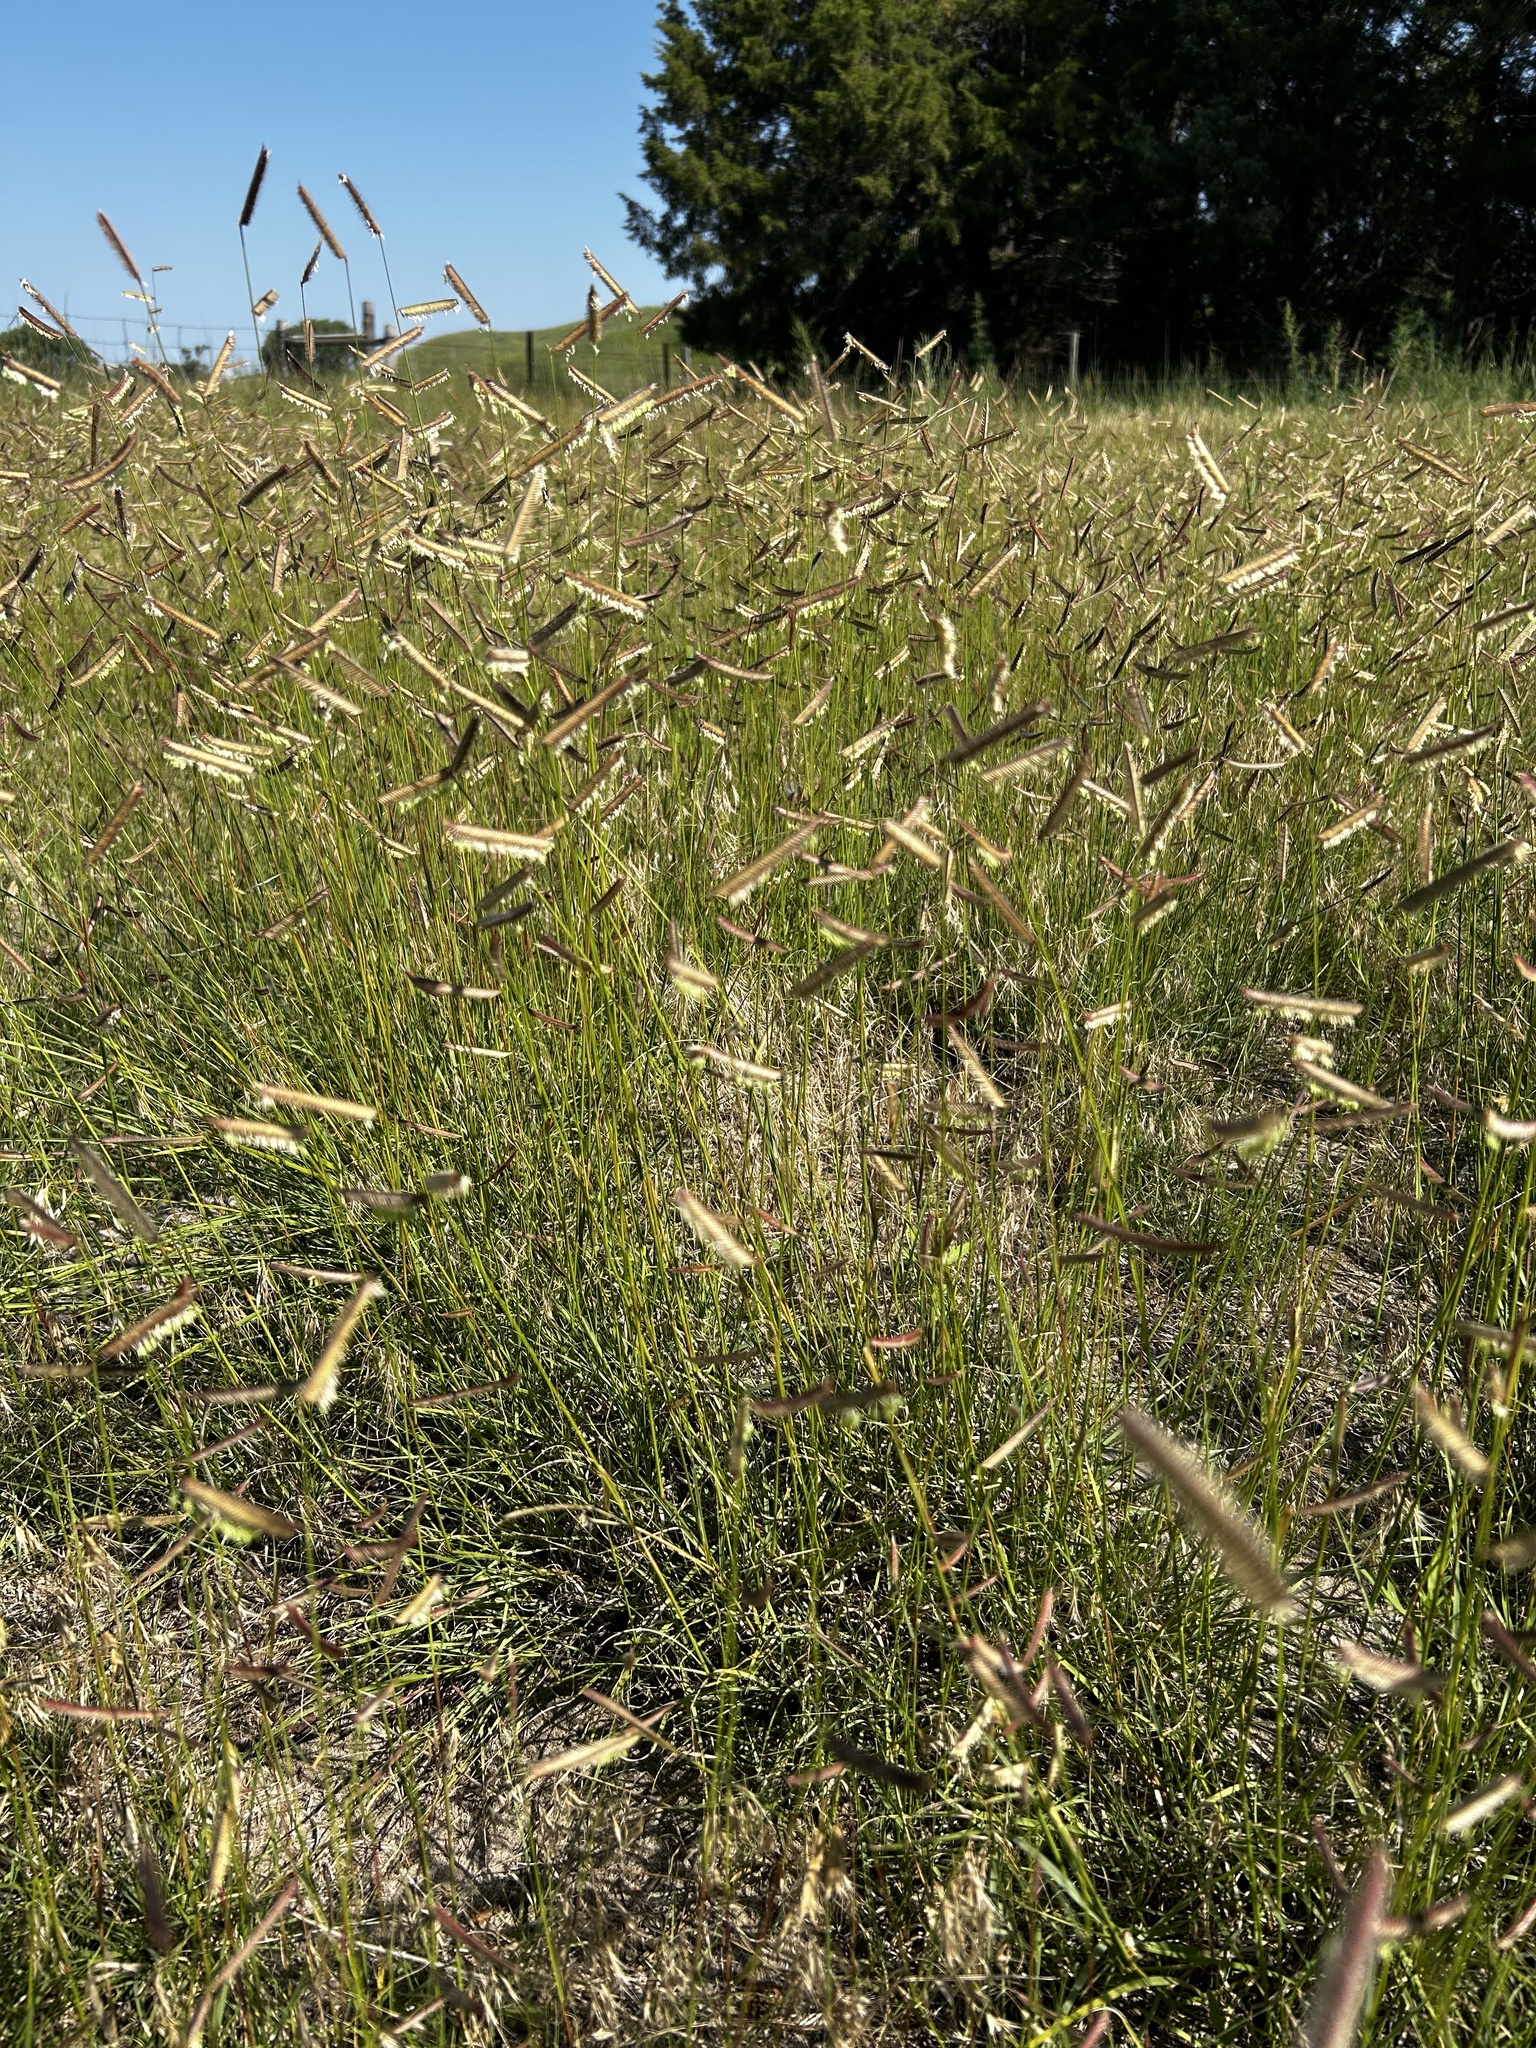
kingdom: Plantae
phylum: Tracheophyta
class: Liliopsida
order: Poales
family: Poaceae
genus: Bouteloua
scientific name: Bouteloua gracilis
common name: Blue grama
